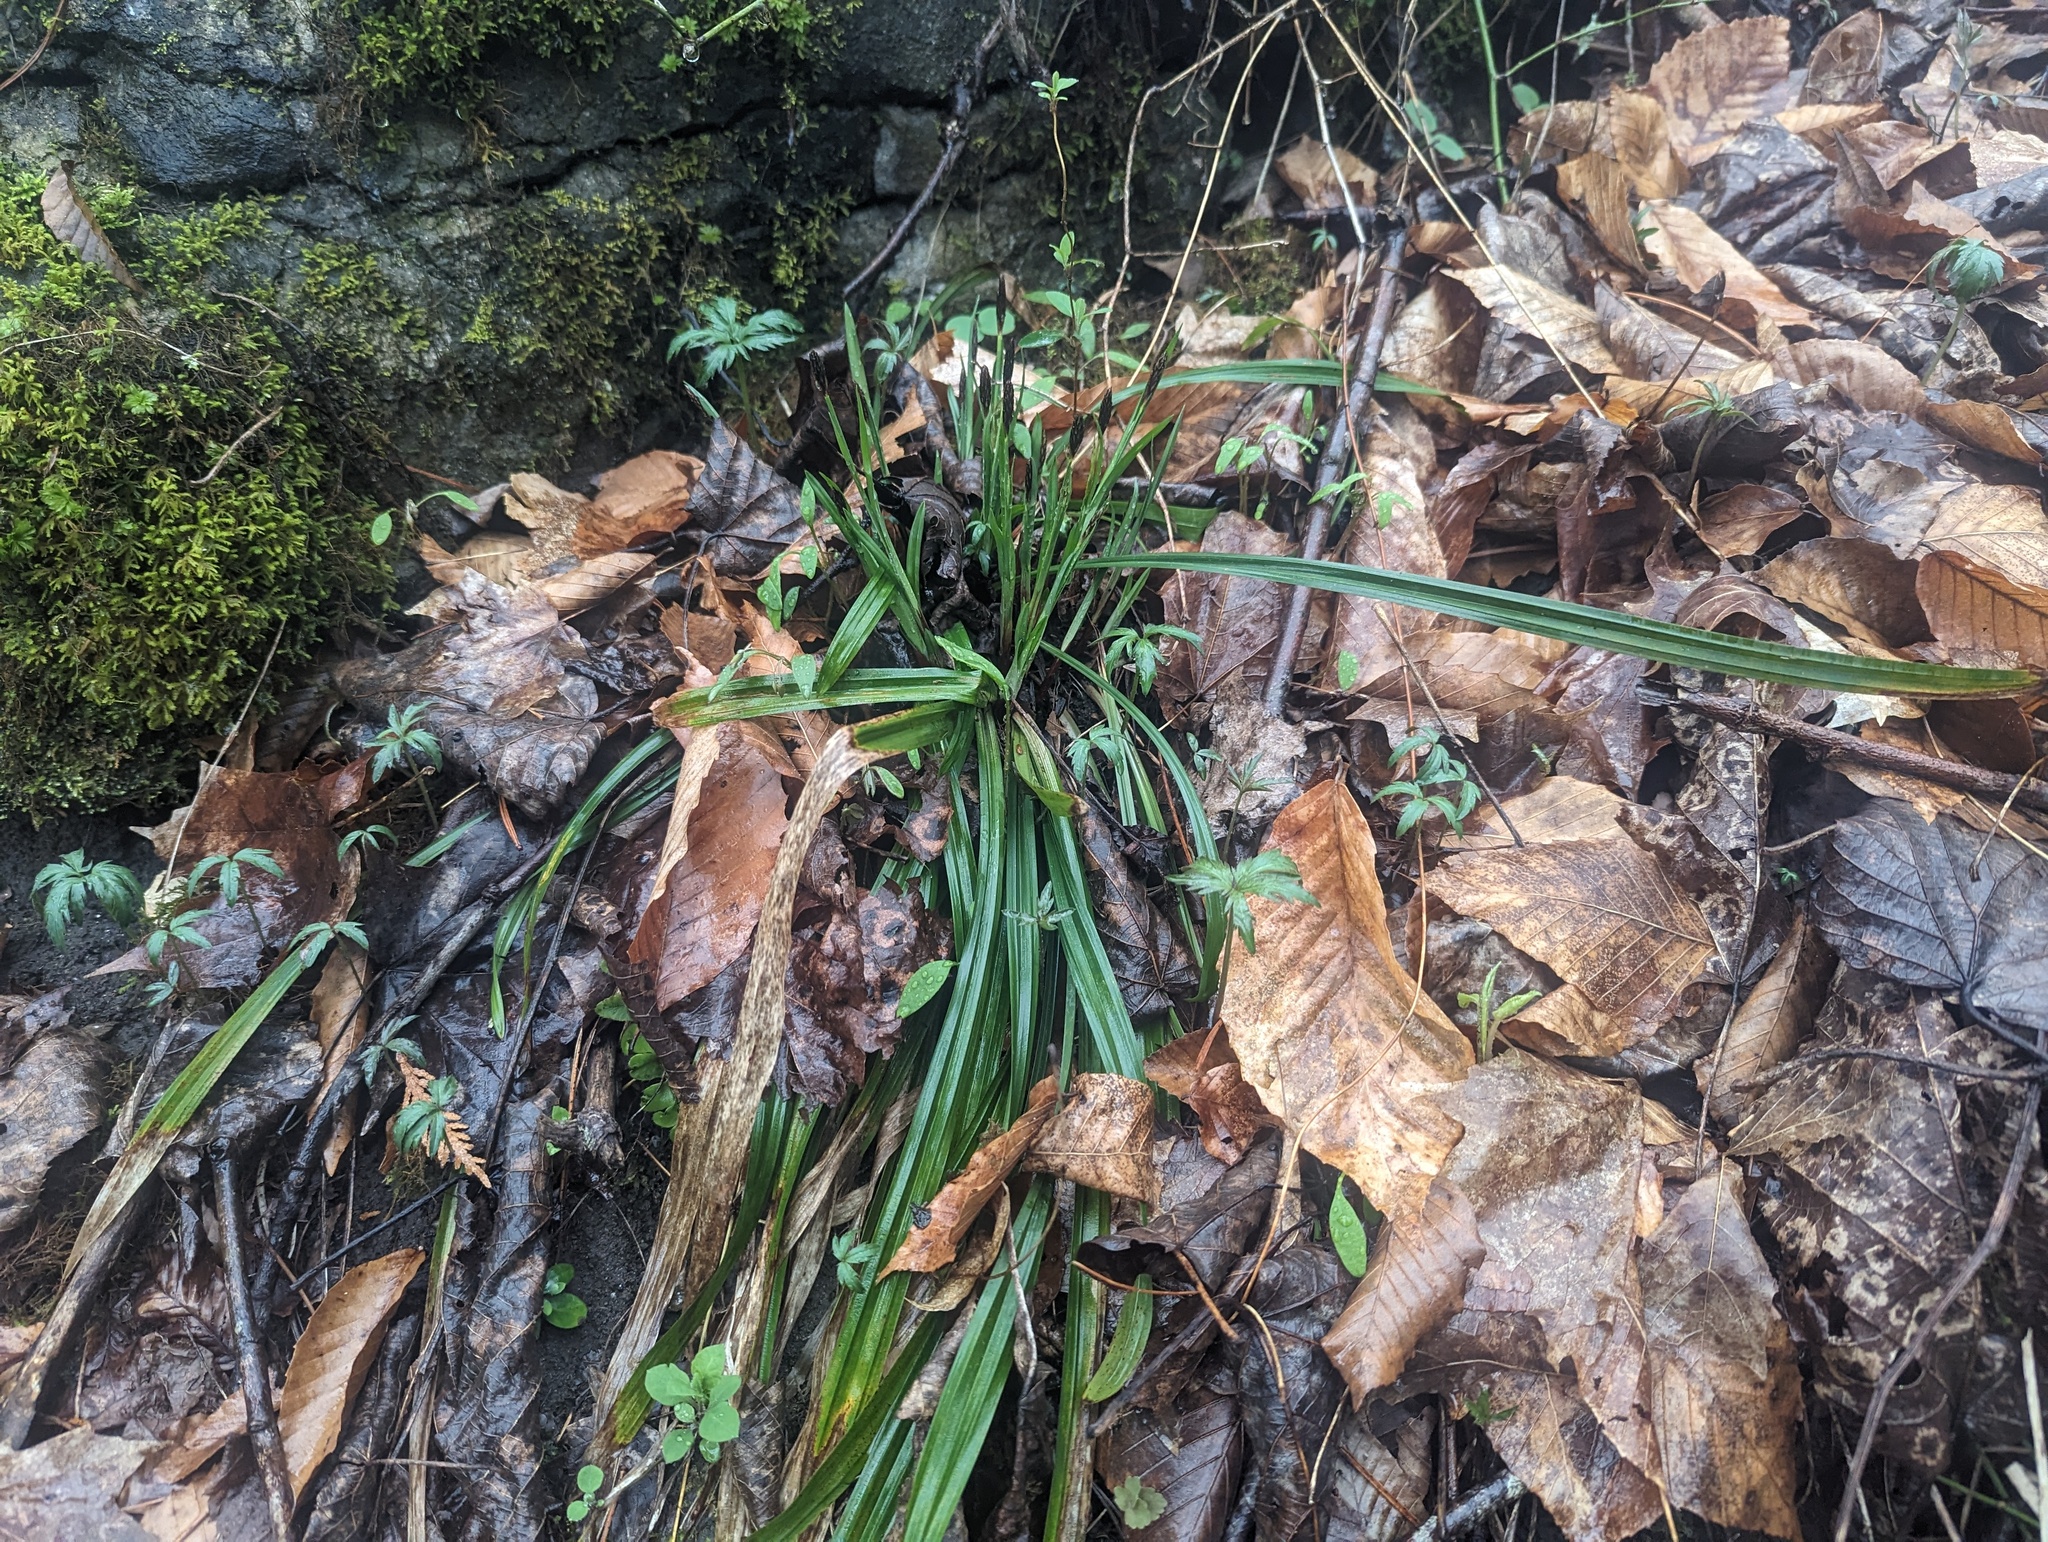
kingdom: Plantae
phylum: Tracheophyta
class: Liliopsida
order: Poales
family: Cyperaceae
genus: Carex
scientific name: Carex careyana
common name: Carey's sedge
